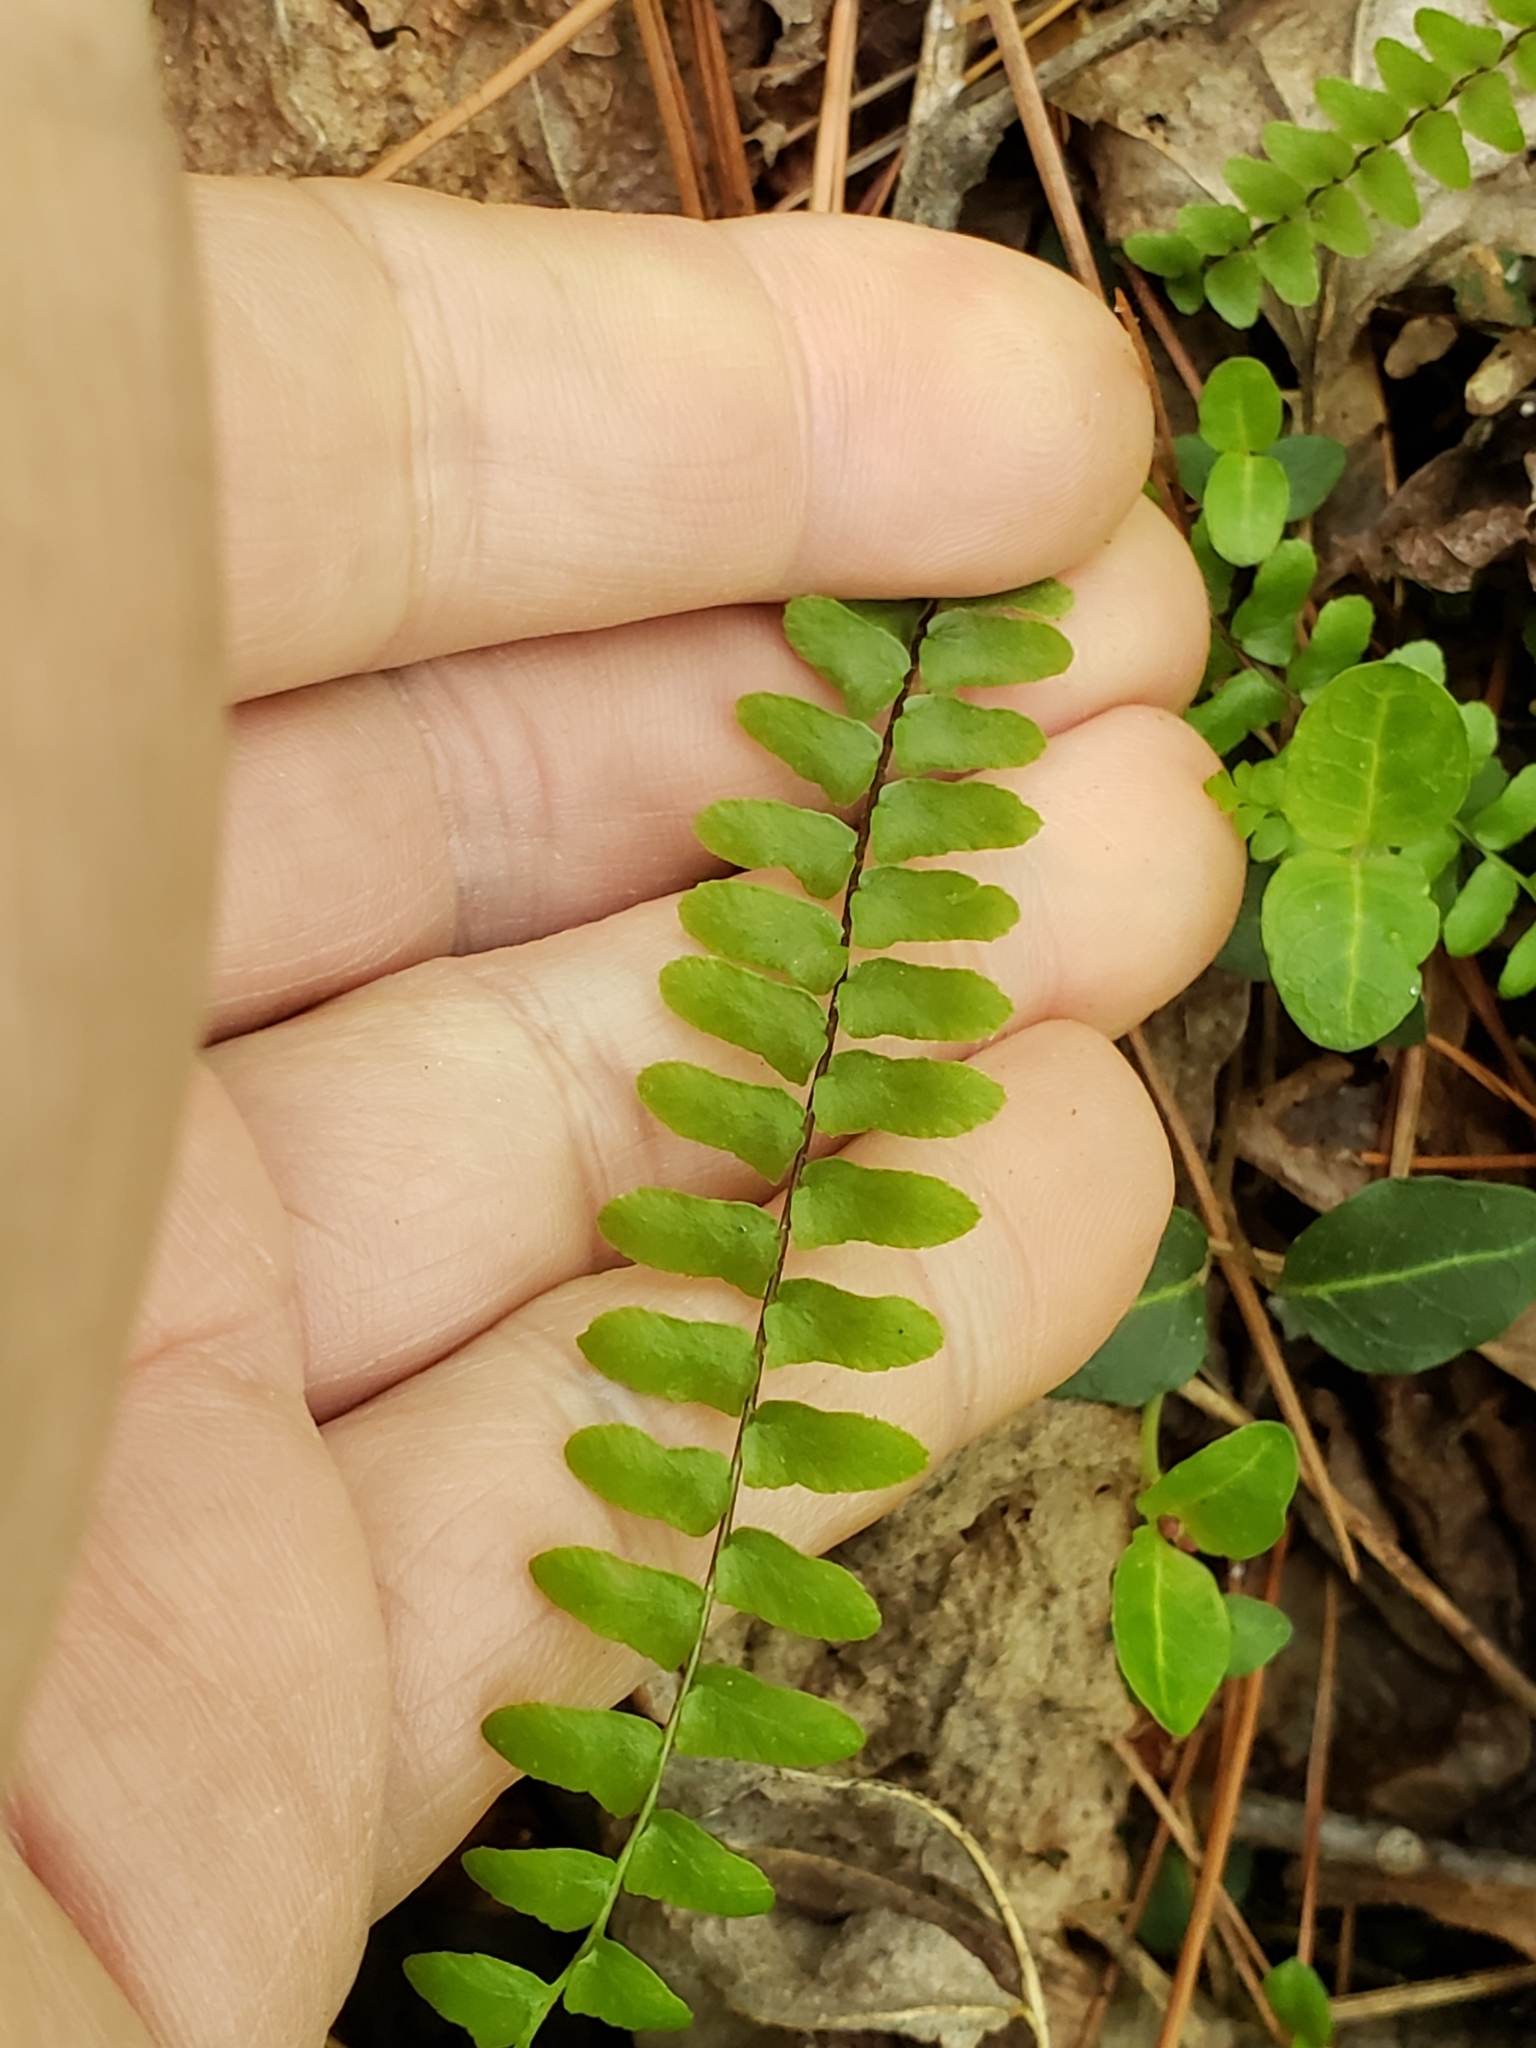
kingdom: Plantae
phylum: Tracheophyta
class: Polypodiopsida
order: Polypodiales
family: Aspleniaceae
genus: Asplenium
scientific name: Asplenium platyneuron
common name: Ebony spleenwort
